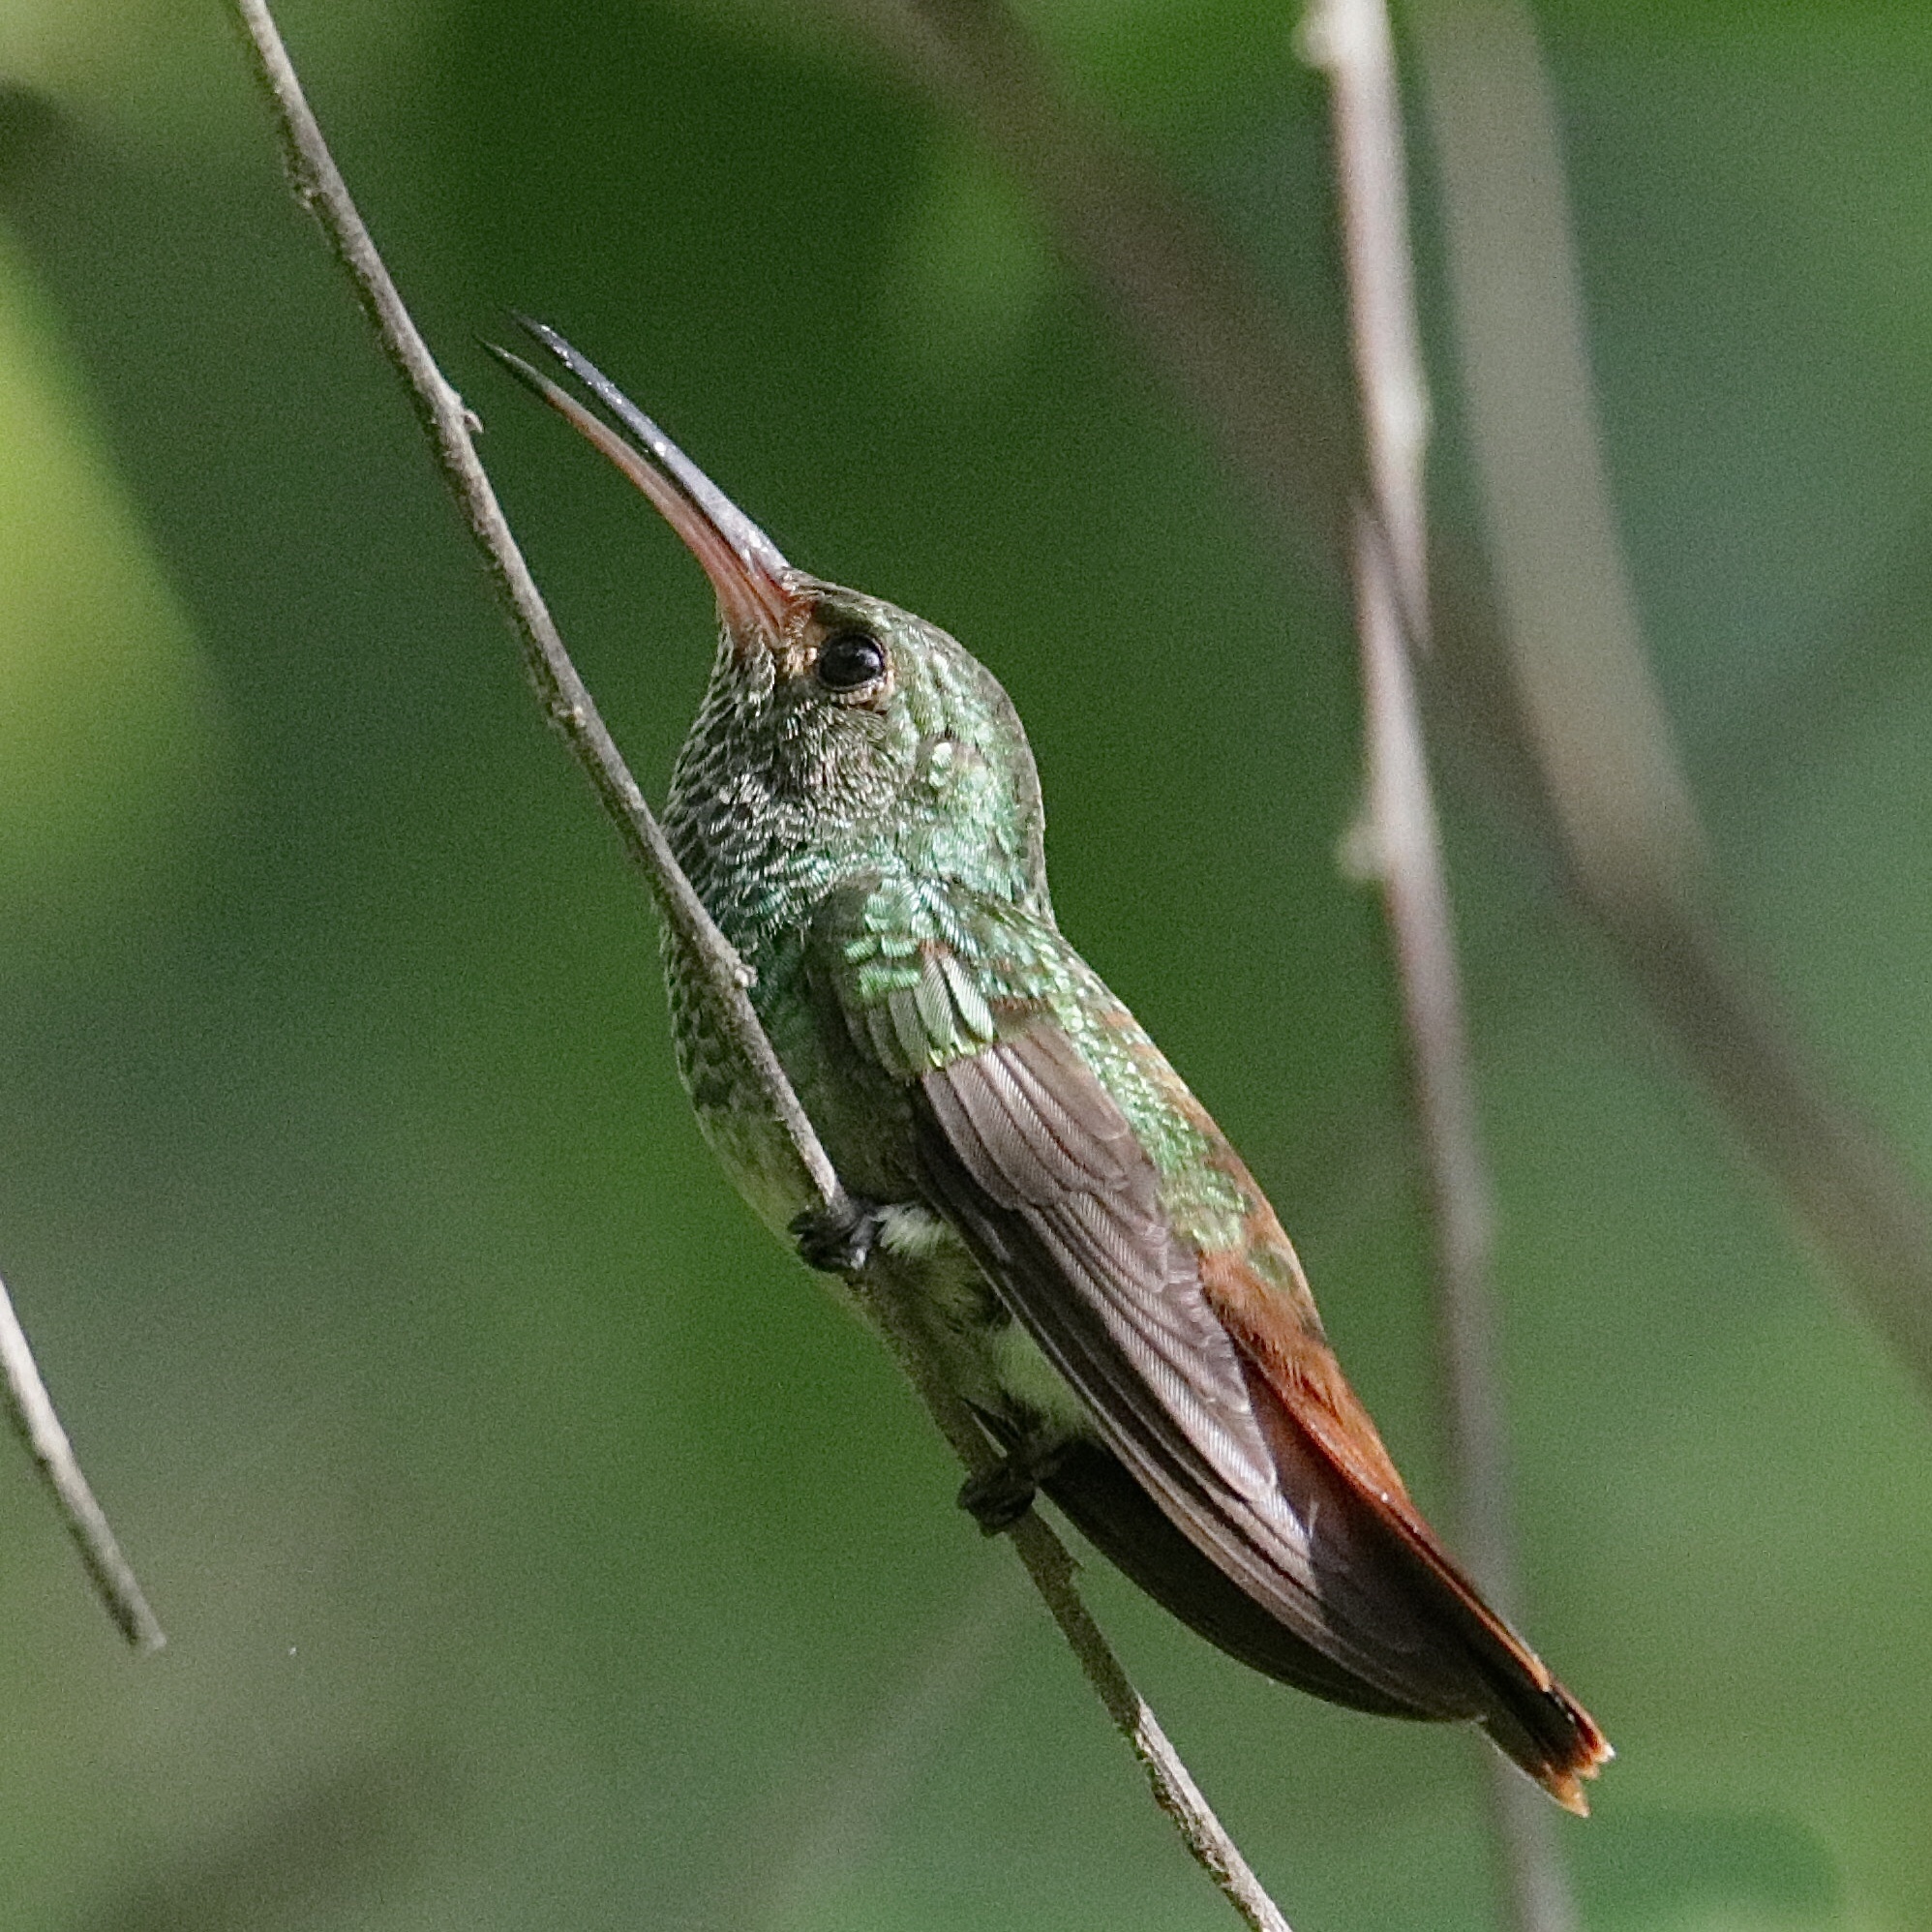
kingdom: Animalia
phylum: Chordata
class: Aves
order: Apodiformes
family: Trochilidae
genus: Amazilia
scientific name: Amazilia tzacatl
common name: Rufous-tailed hummingbird
